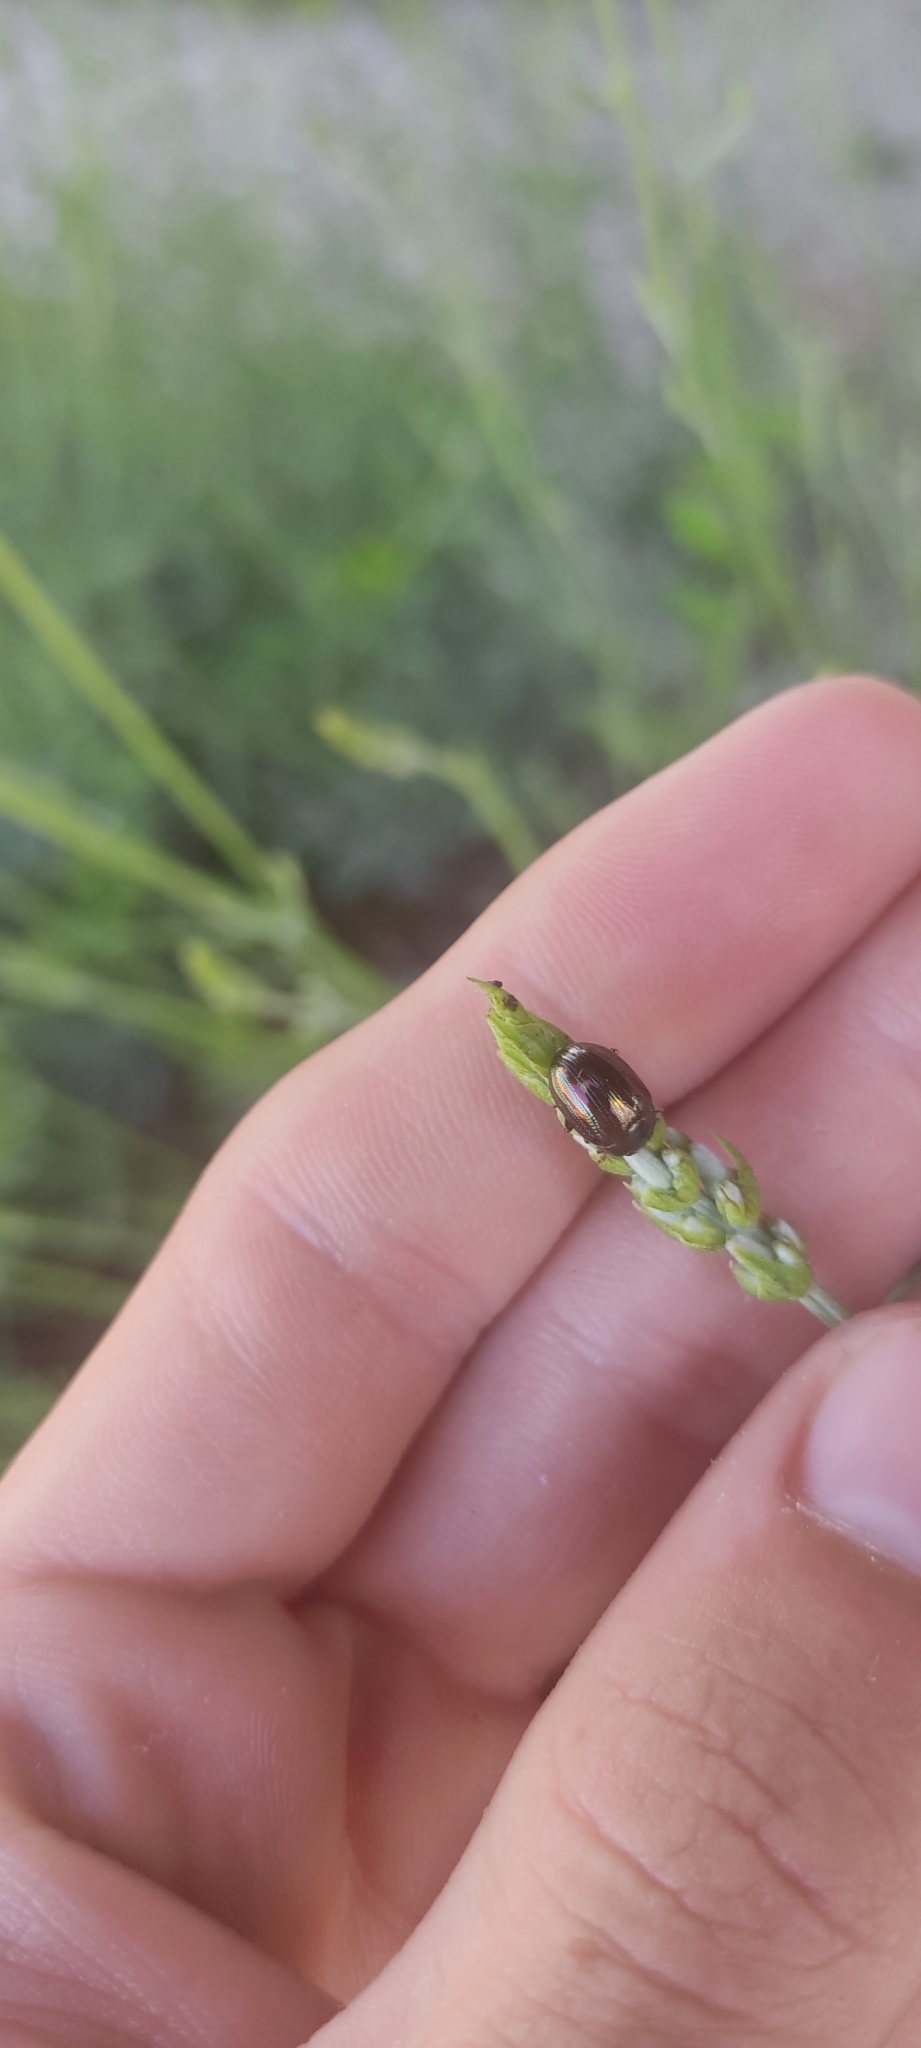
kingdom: Animalia
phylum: Arthropoda
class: Insecta
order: Coleoptera
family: Chrysomelidae
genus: Chrysolina
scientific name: Chrysolina americana
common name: Rosemary beetle
